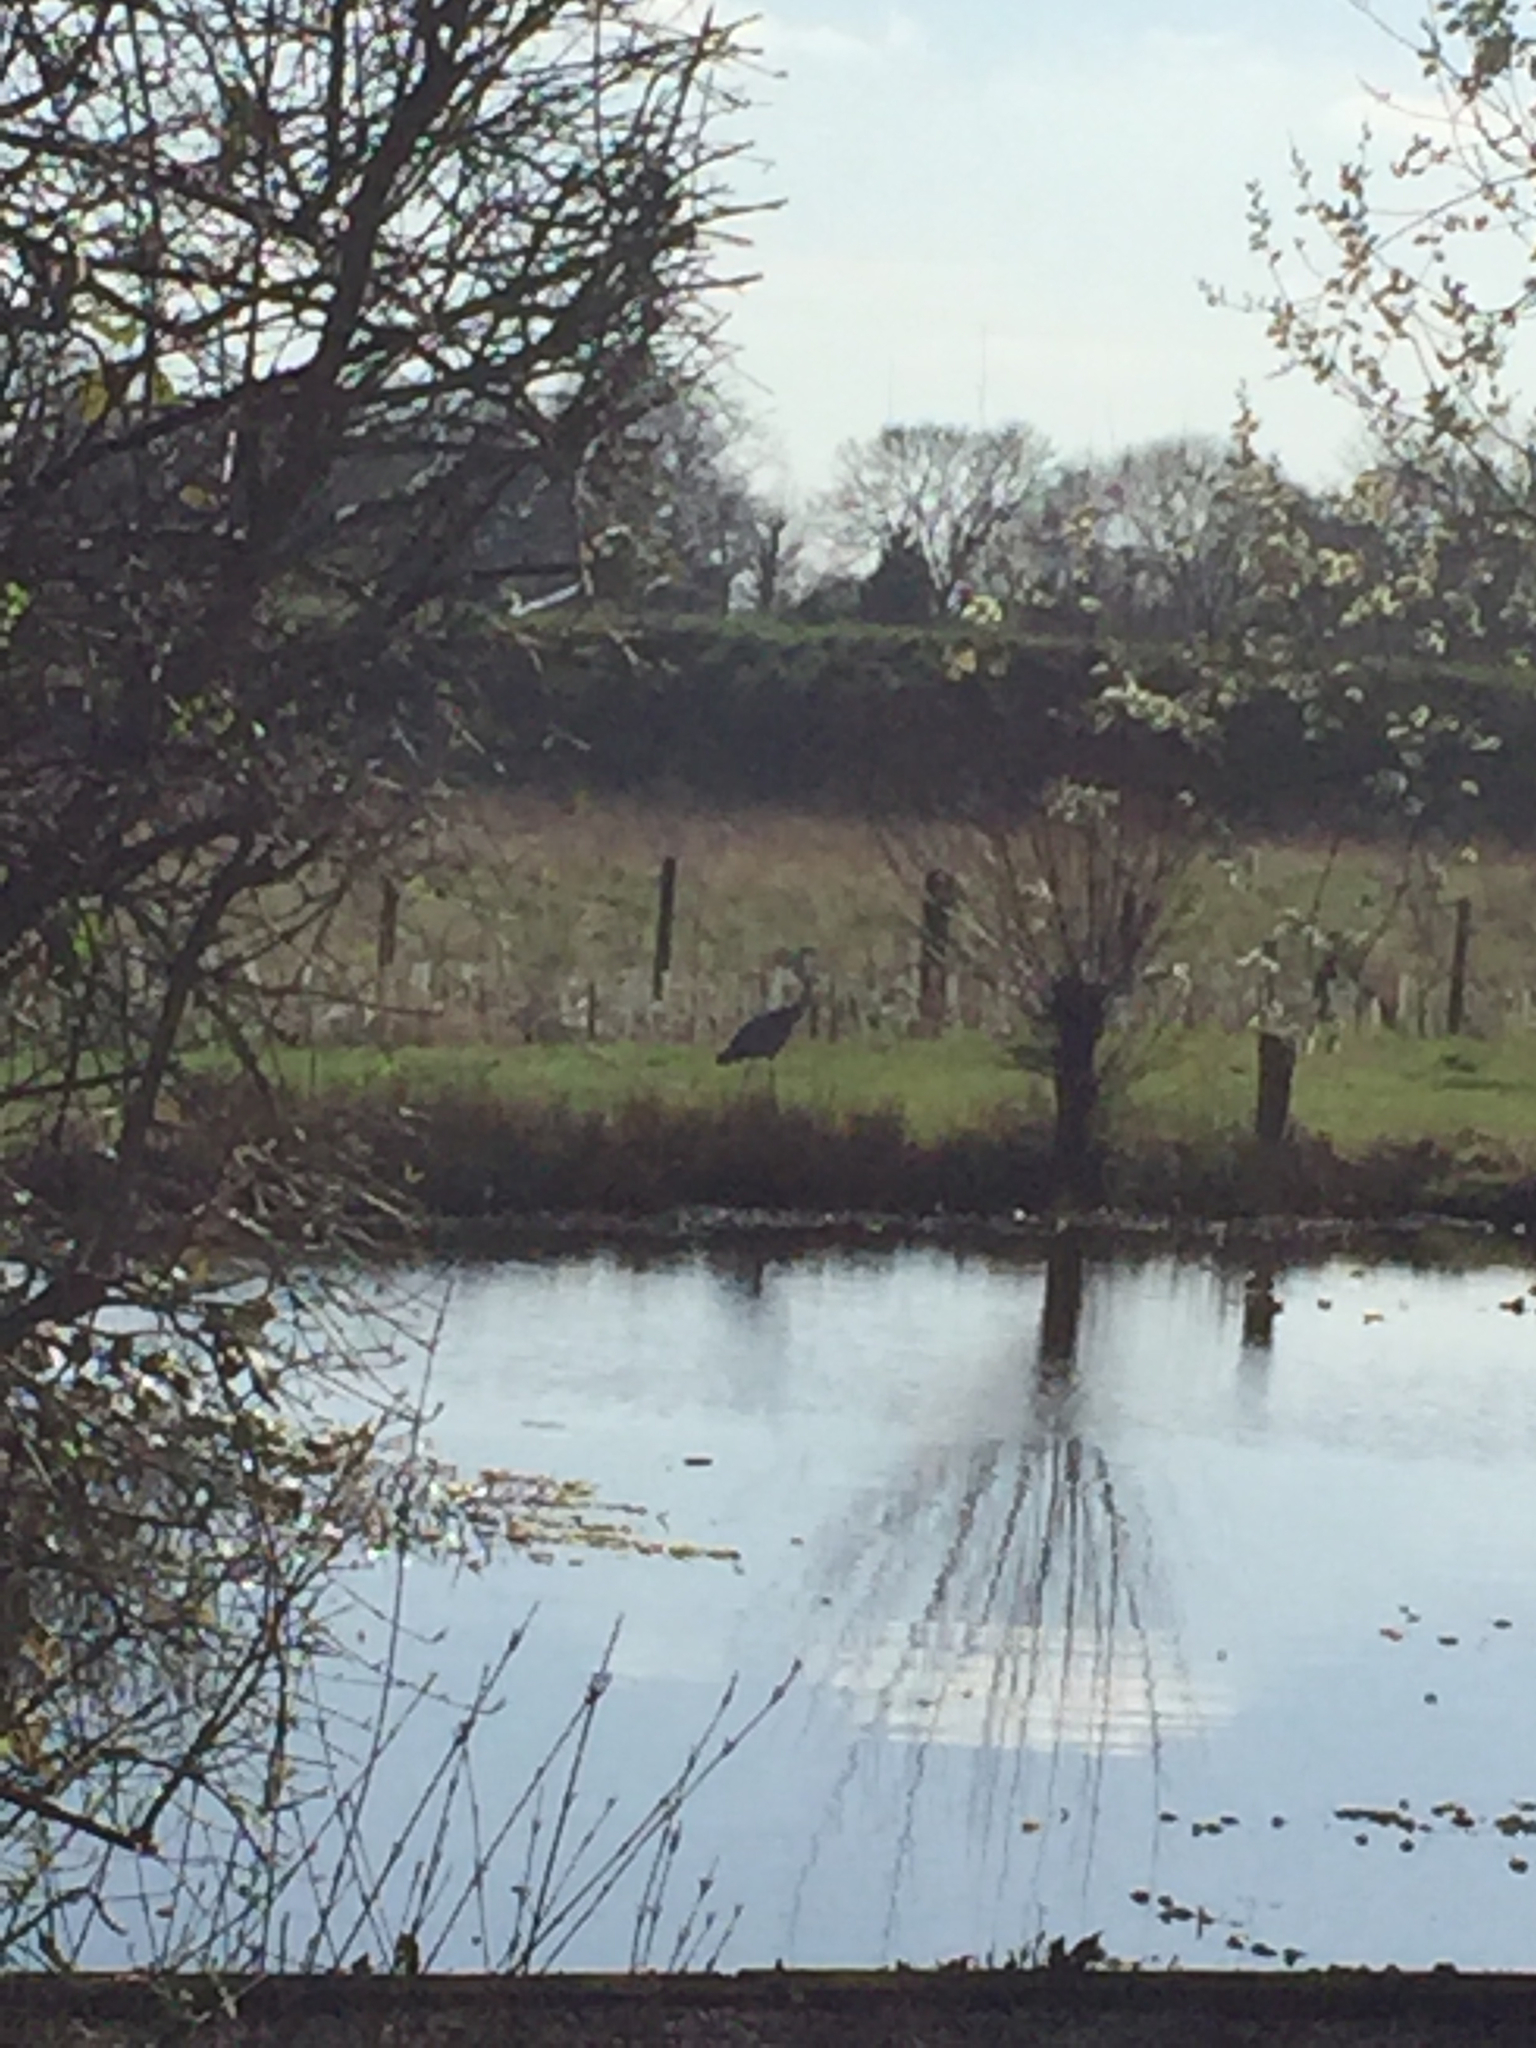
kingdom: Animalia
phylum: Chordata
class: Aves
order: Pelecaniformes
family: Ardeidae
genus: Ardea
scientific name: Ardea cinerea
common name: Grey heron
